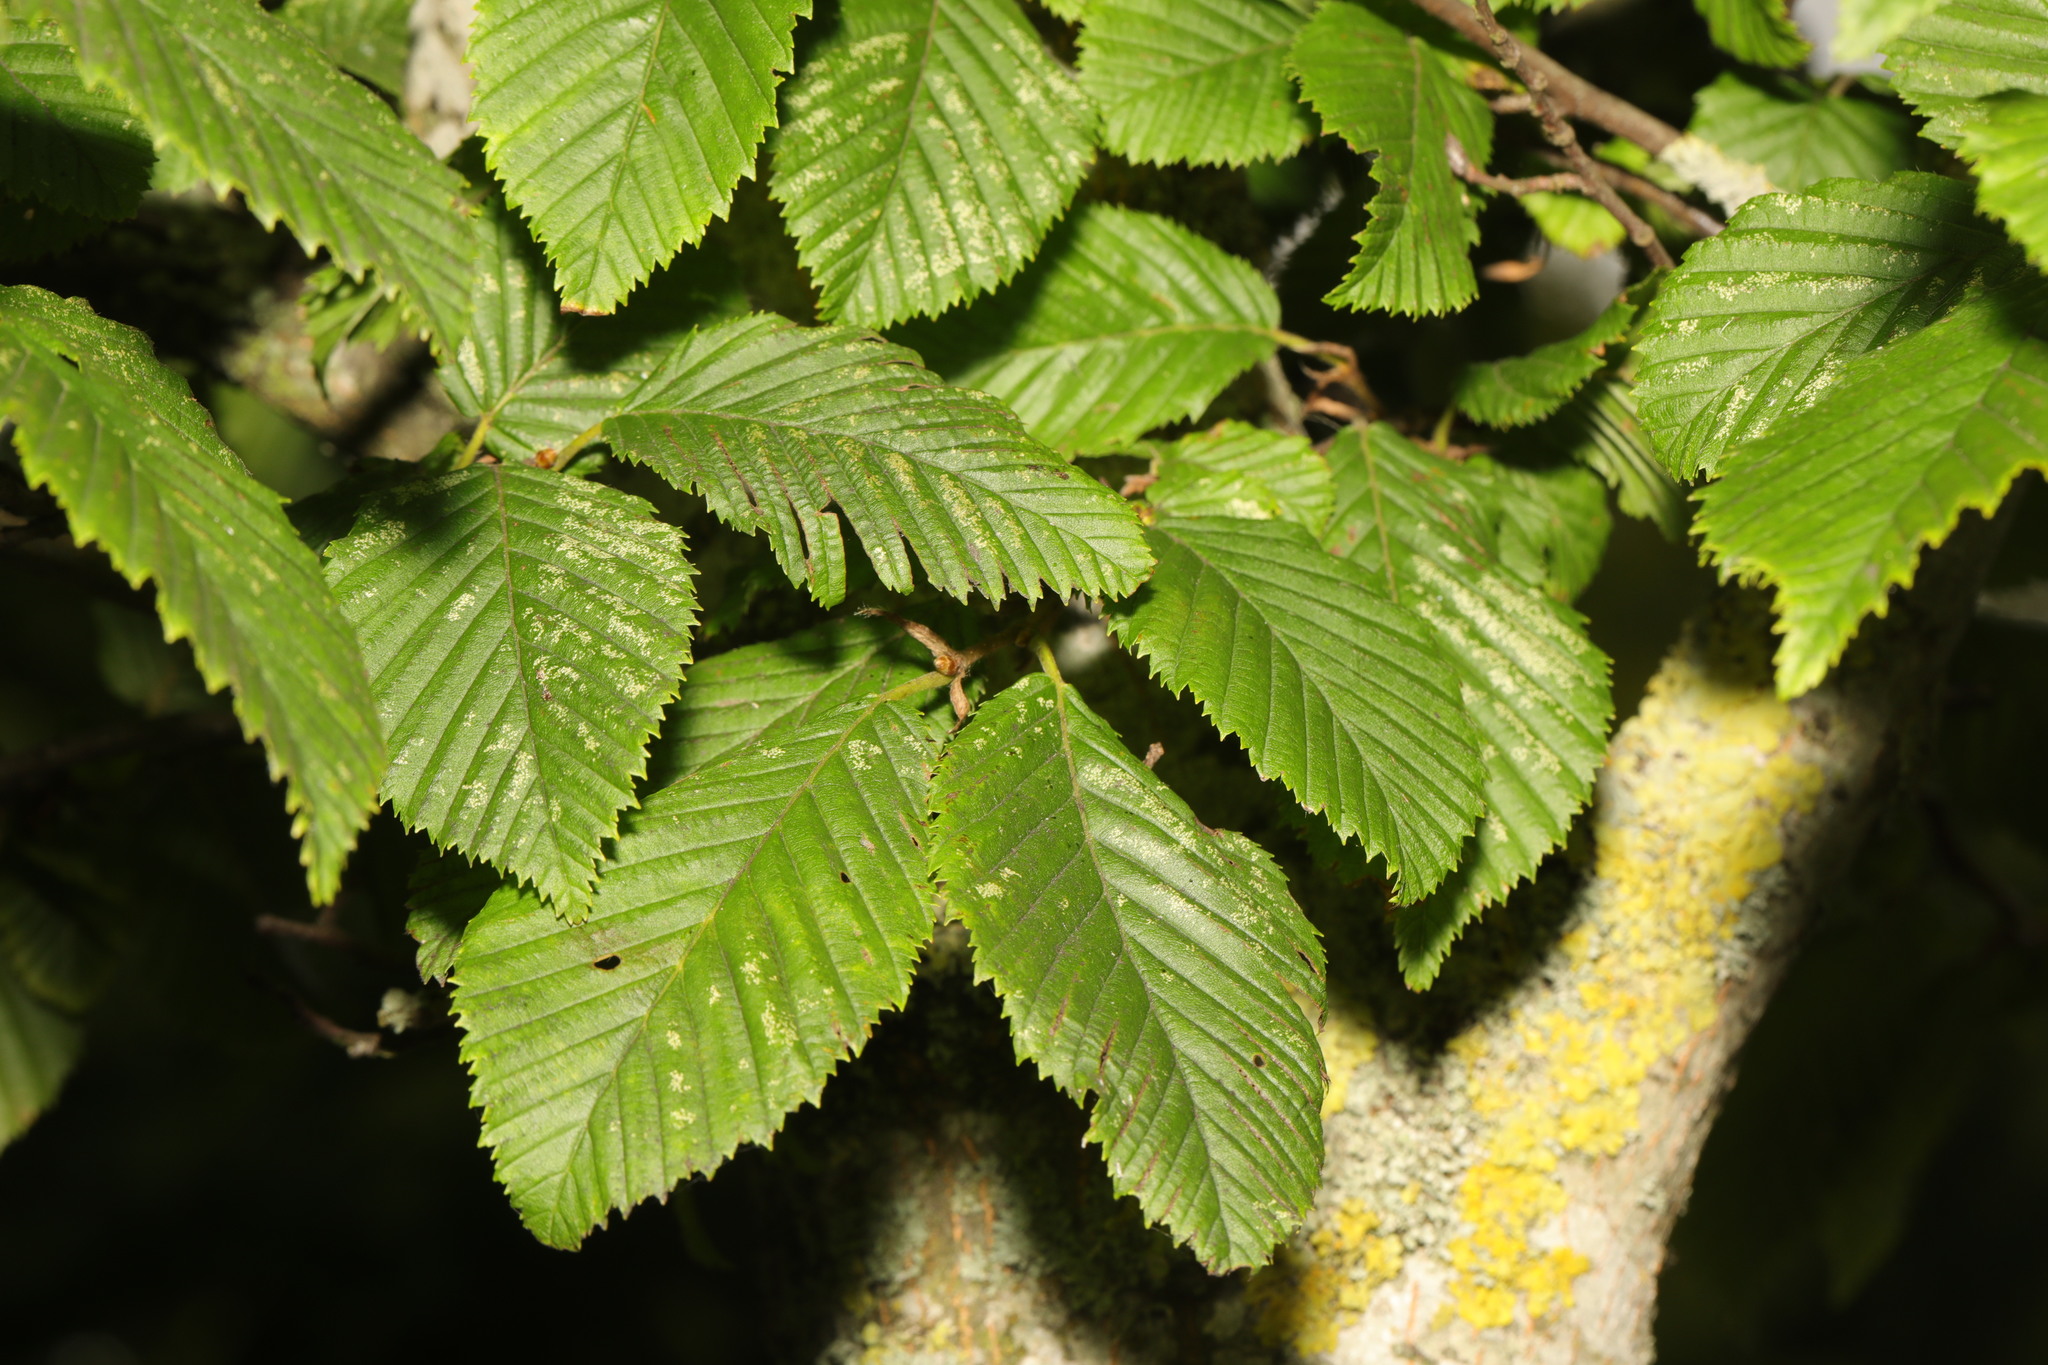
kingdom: Plantae
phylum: Tracheophyta
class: Magnoliopsida
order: Fagales
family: Betulaceae
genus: Carpinus
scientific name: Carpinus betulus
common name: Hornbeam
